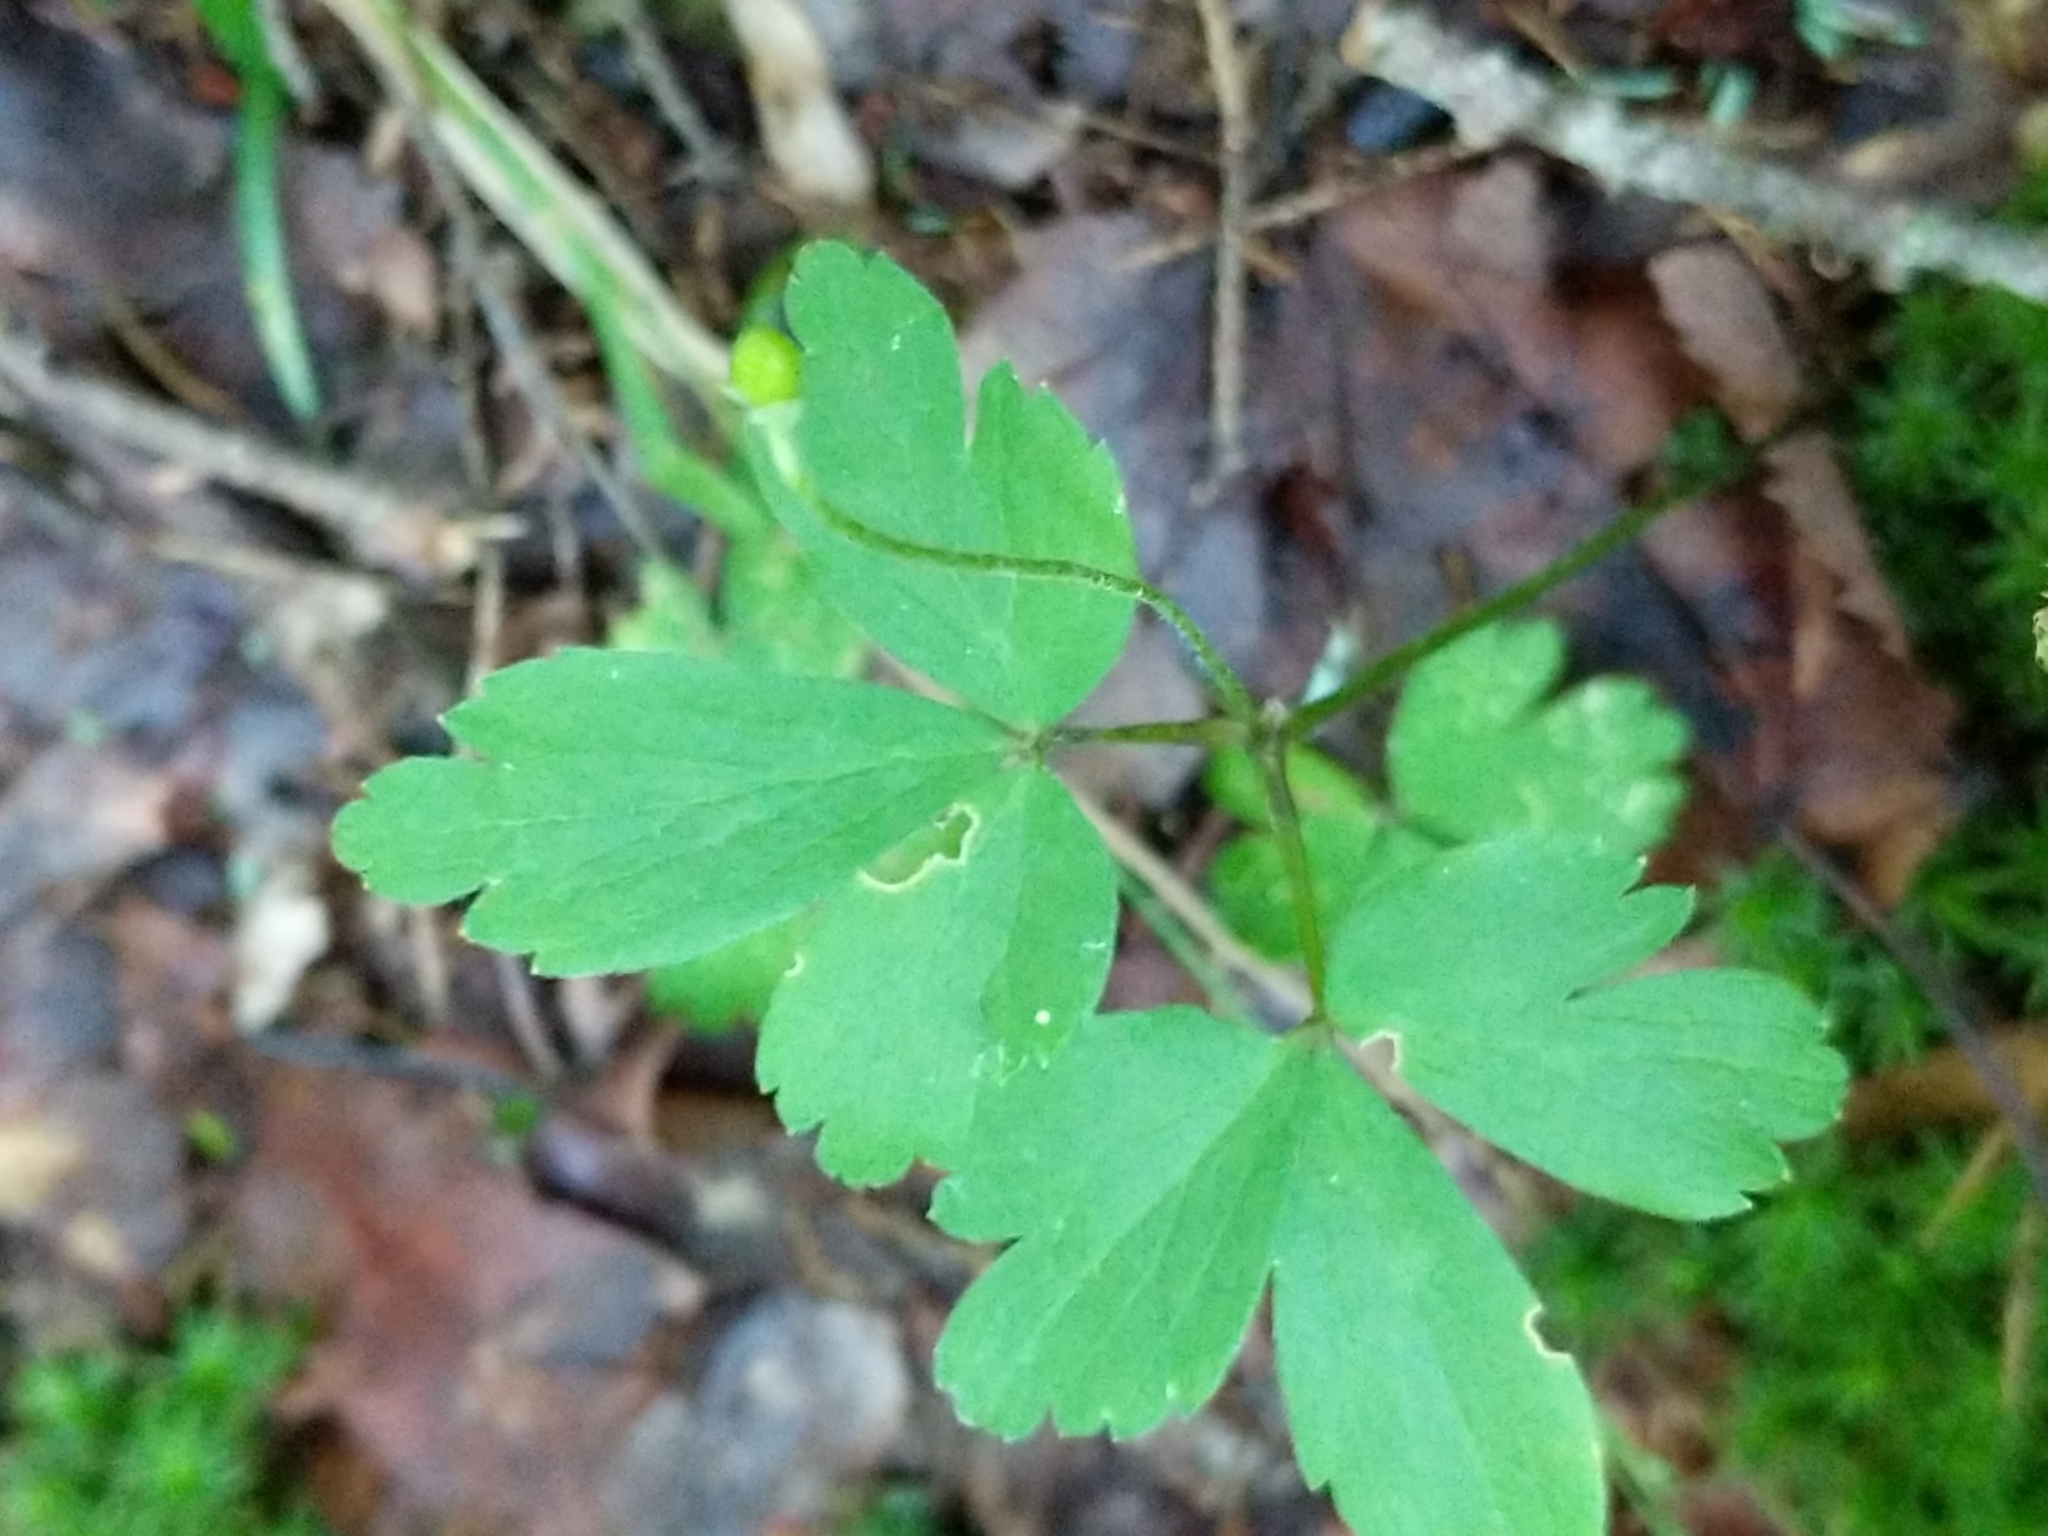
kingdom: Plantae
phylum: Tracheophyta
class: Magnoliopsida
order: Ranunculales
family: Ranunculaceae
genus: Anemone
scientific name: Anemone quinquefolia
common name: Wood anemone
